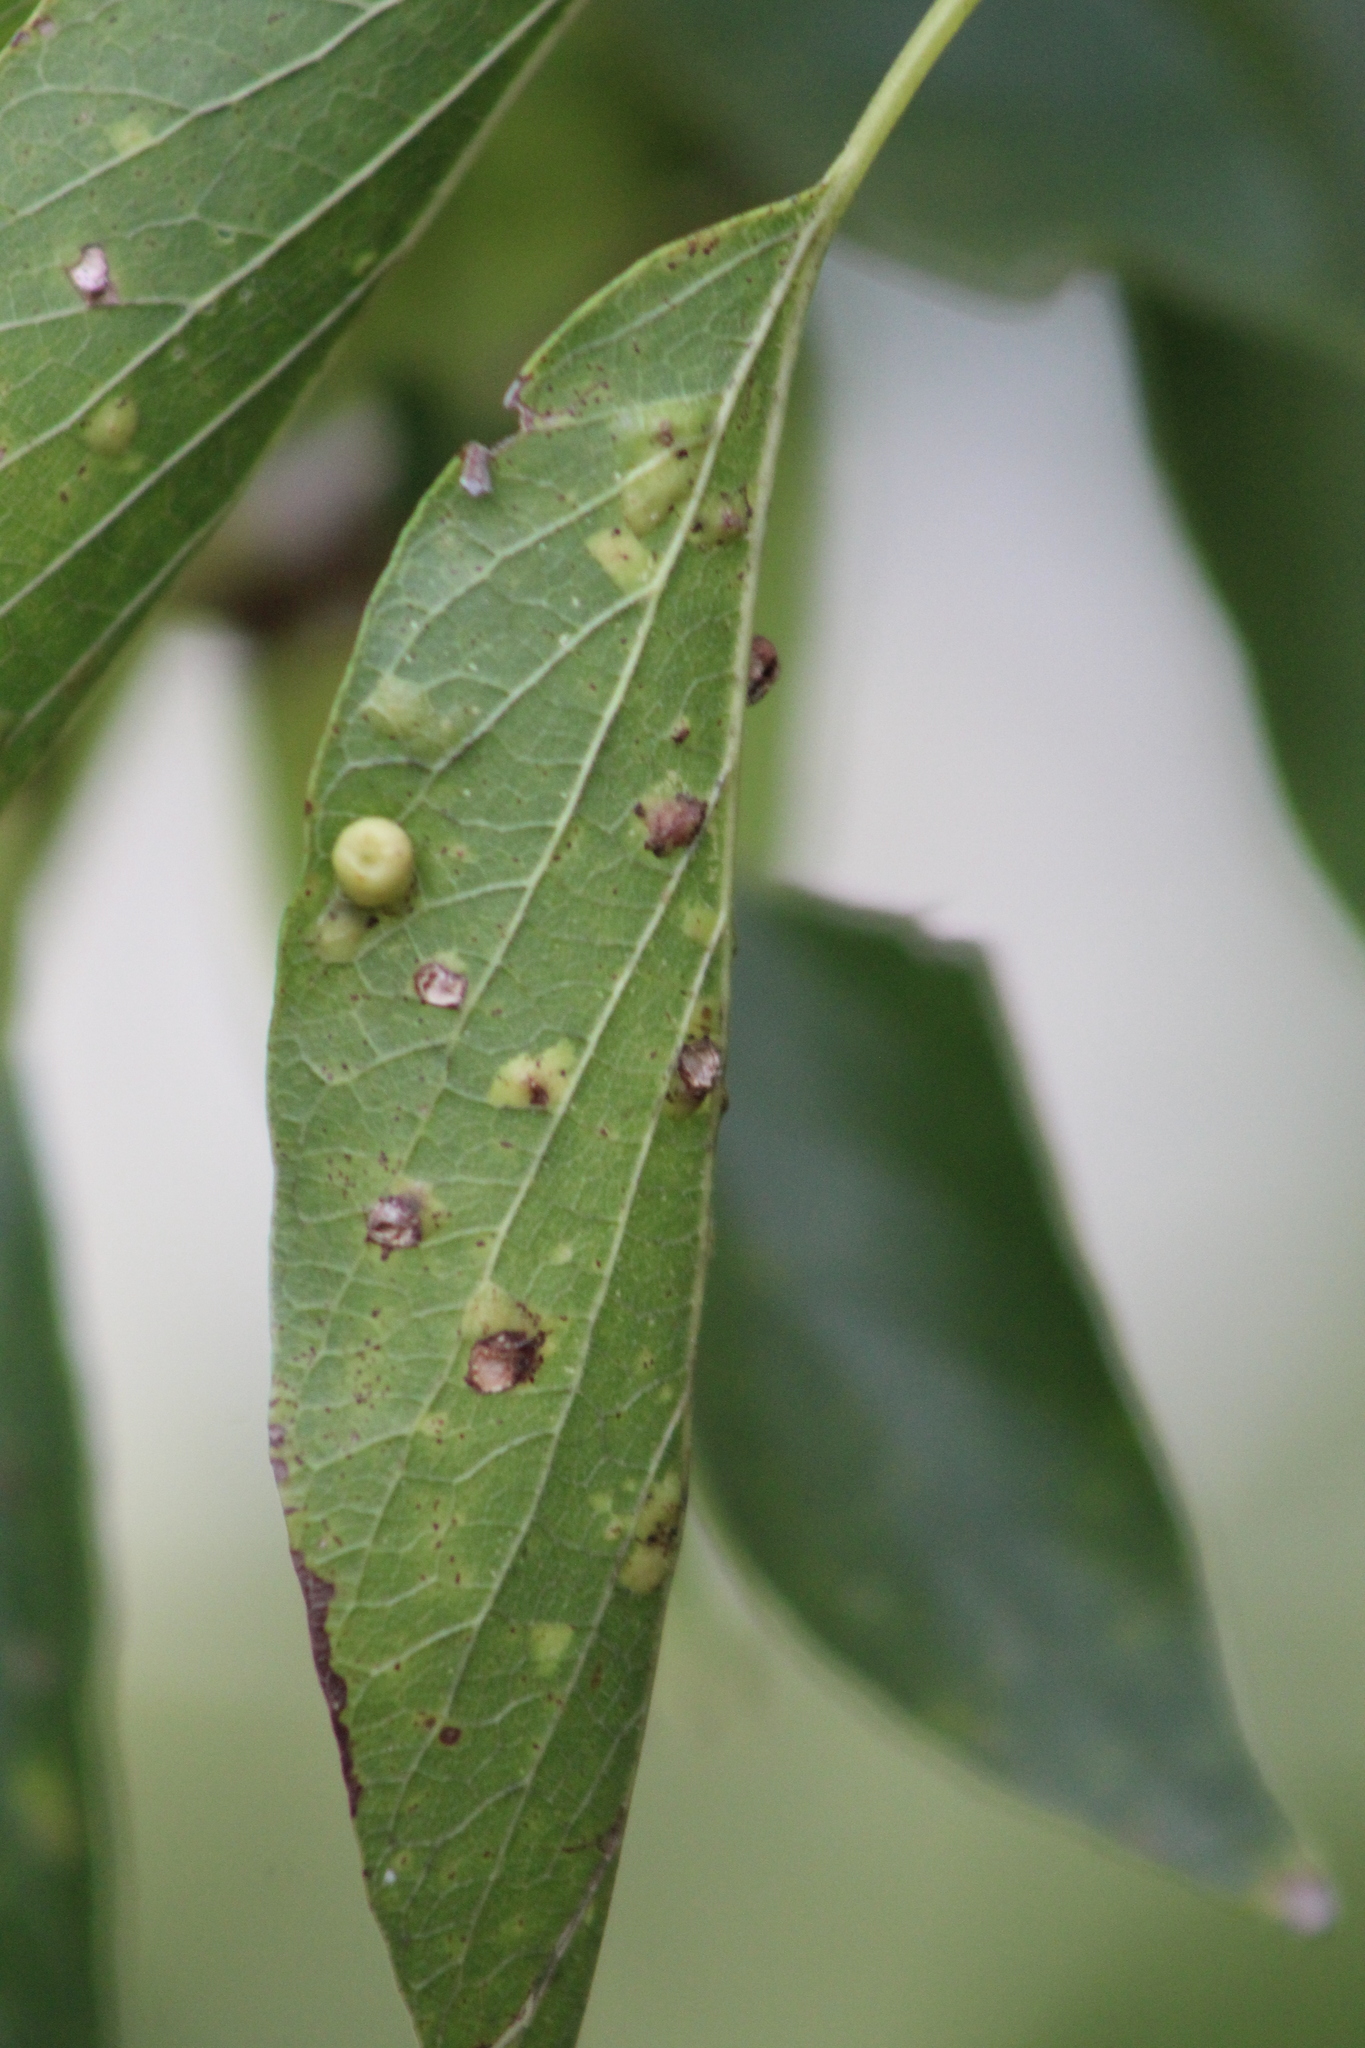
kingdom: Animalia
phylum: Arthropoda
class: Insecta
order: Hemiptera
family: Aphalaridae
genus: Pachypsylla
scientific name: Pachypsylla celtidismamma
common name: Hackberry nipplegall psyllid
